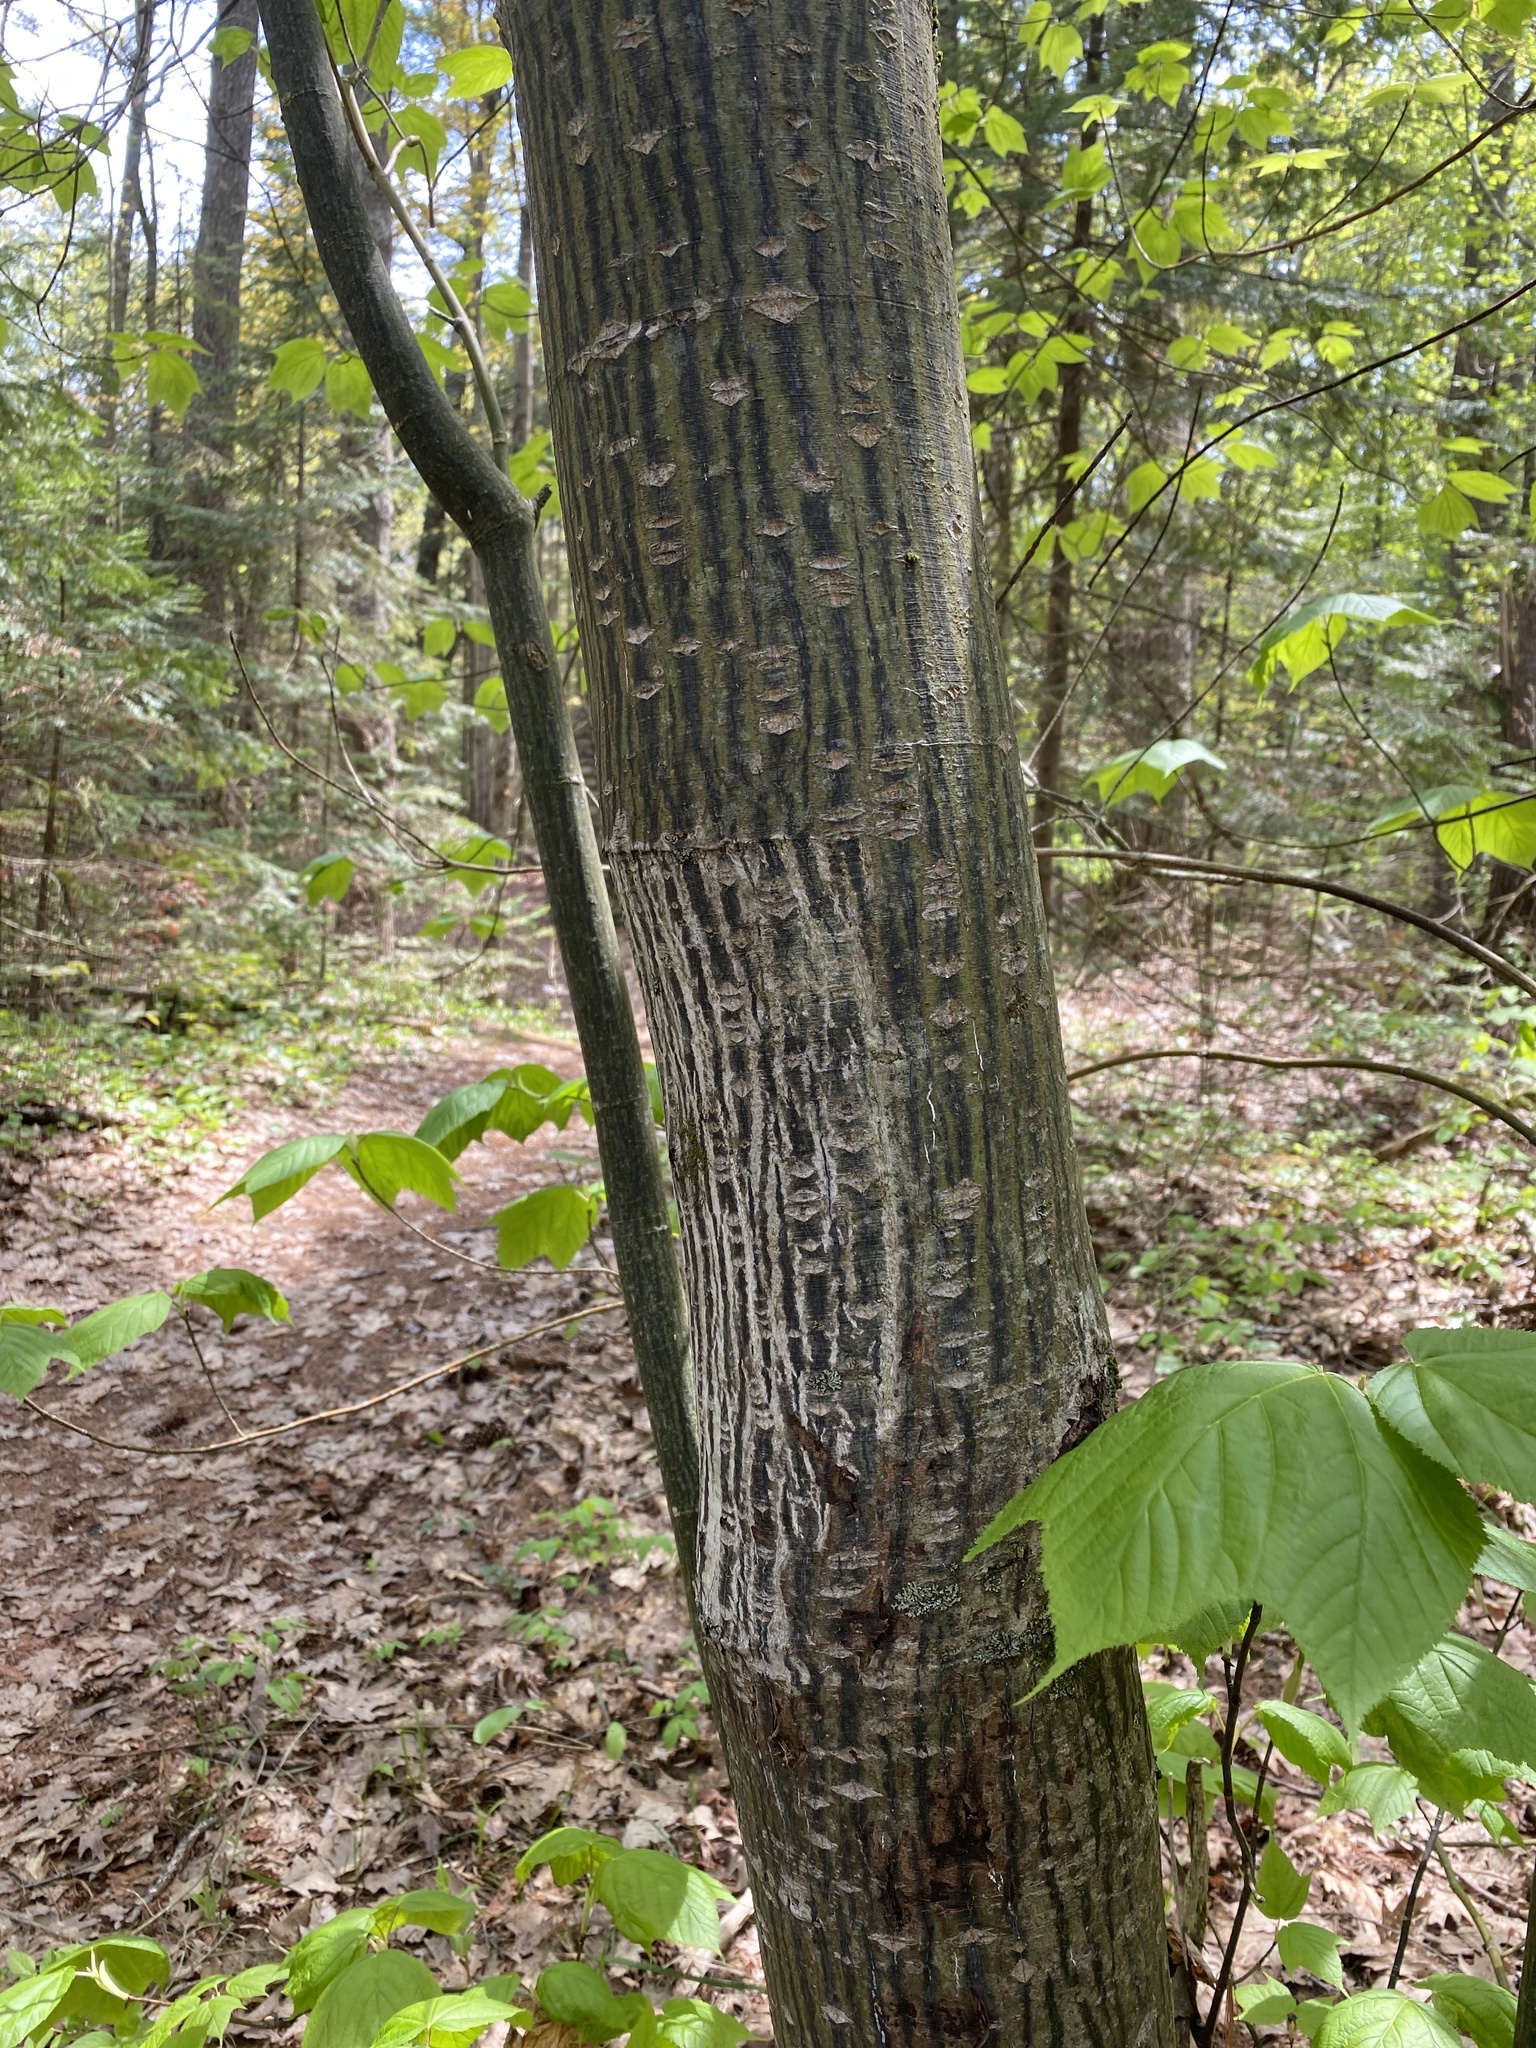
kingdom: Plantae
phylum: Tracheophyta
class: Magnoliopsida
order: Sapindales
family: Sapindaceae
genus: Acer
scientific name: Acer pensylvanicum
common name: Moosewood
